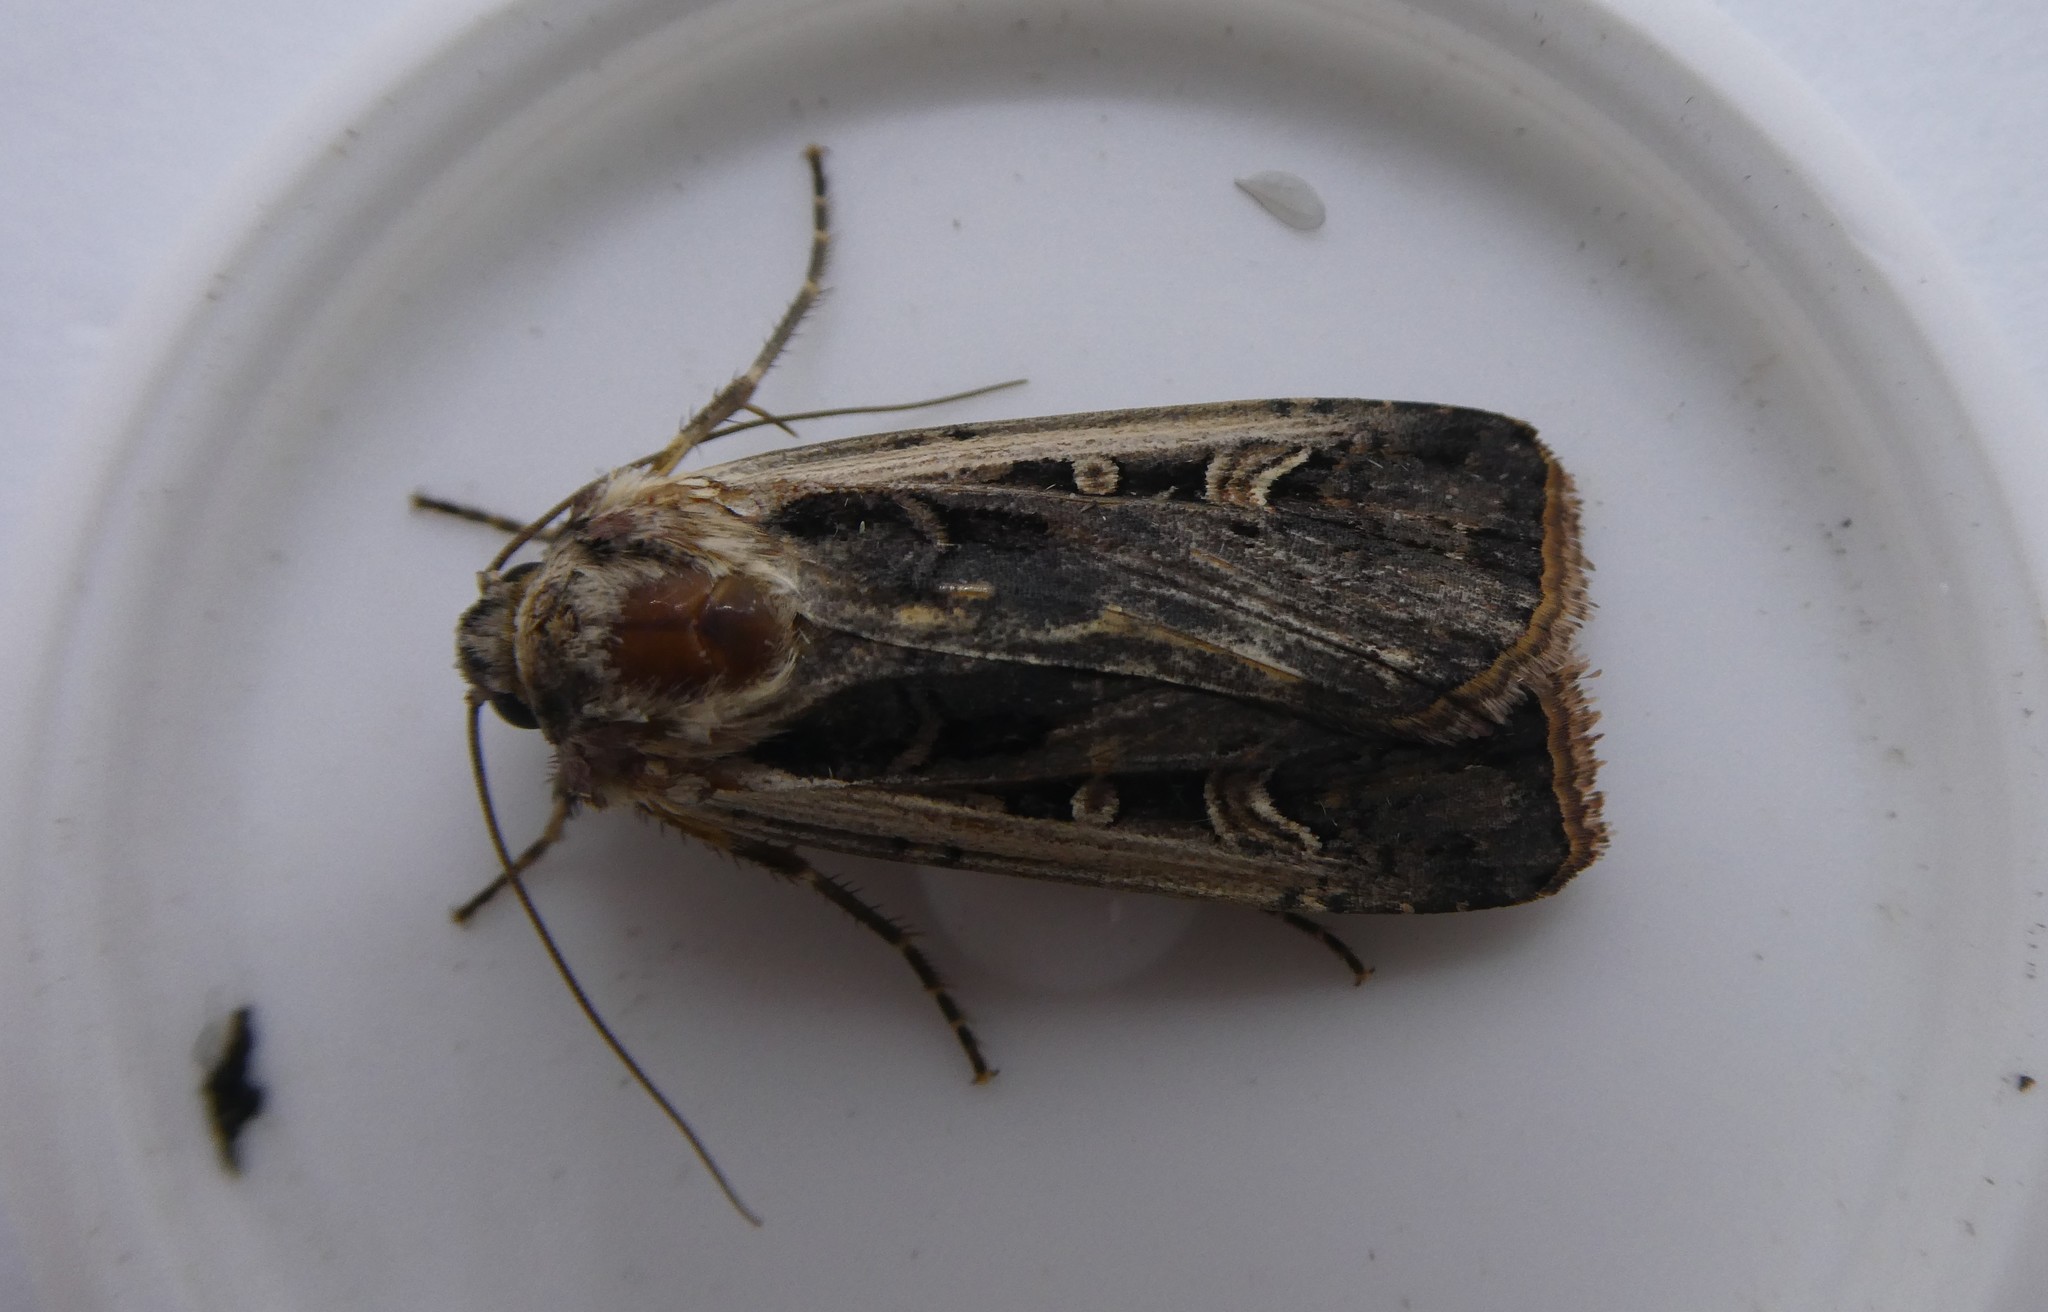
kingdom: Animalia
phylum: Arthropoda
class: Insecta
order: Lepidoptera
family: Noctuidae
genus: Striacosta
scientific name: Striacosta albicosta
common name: Western bean cutworm moth
